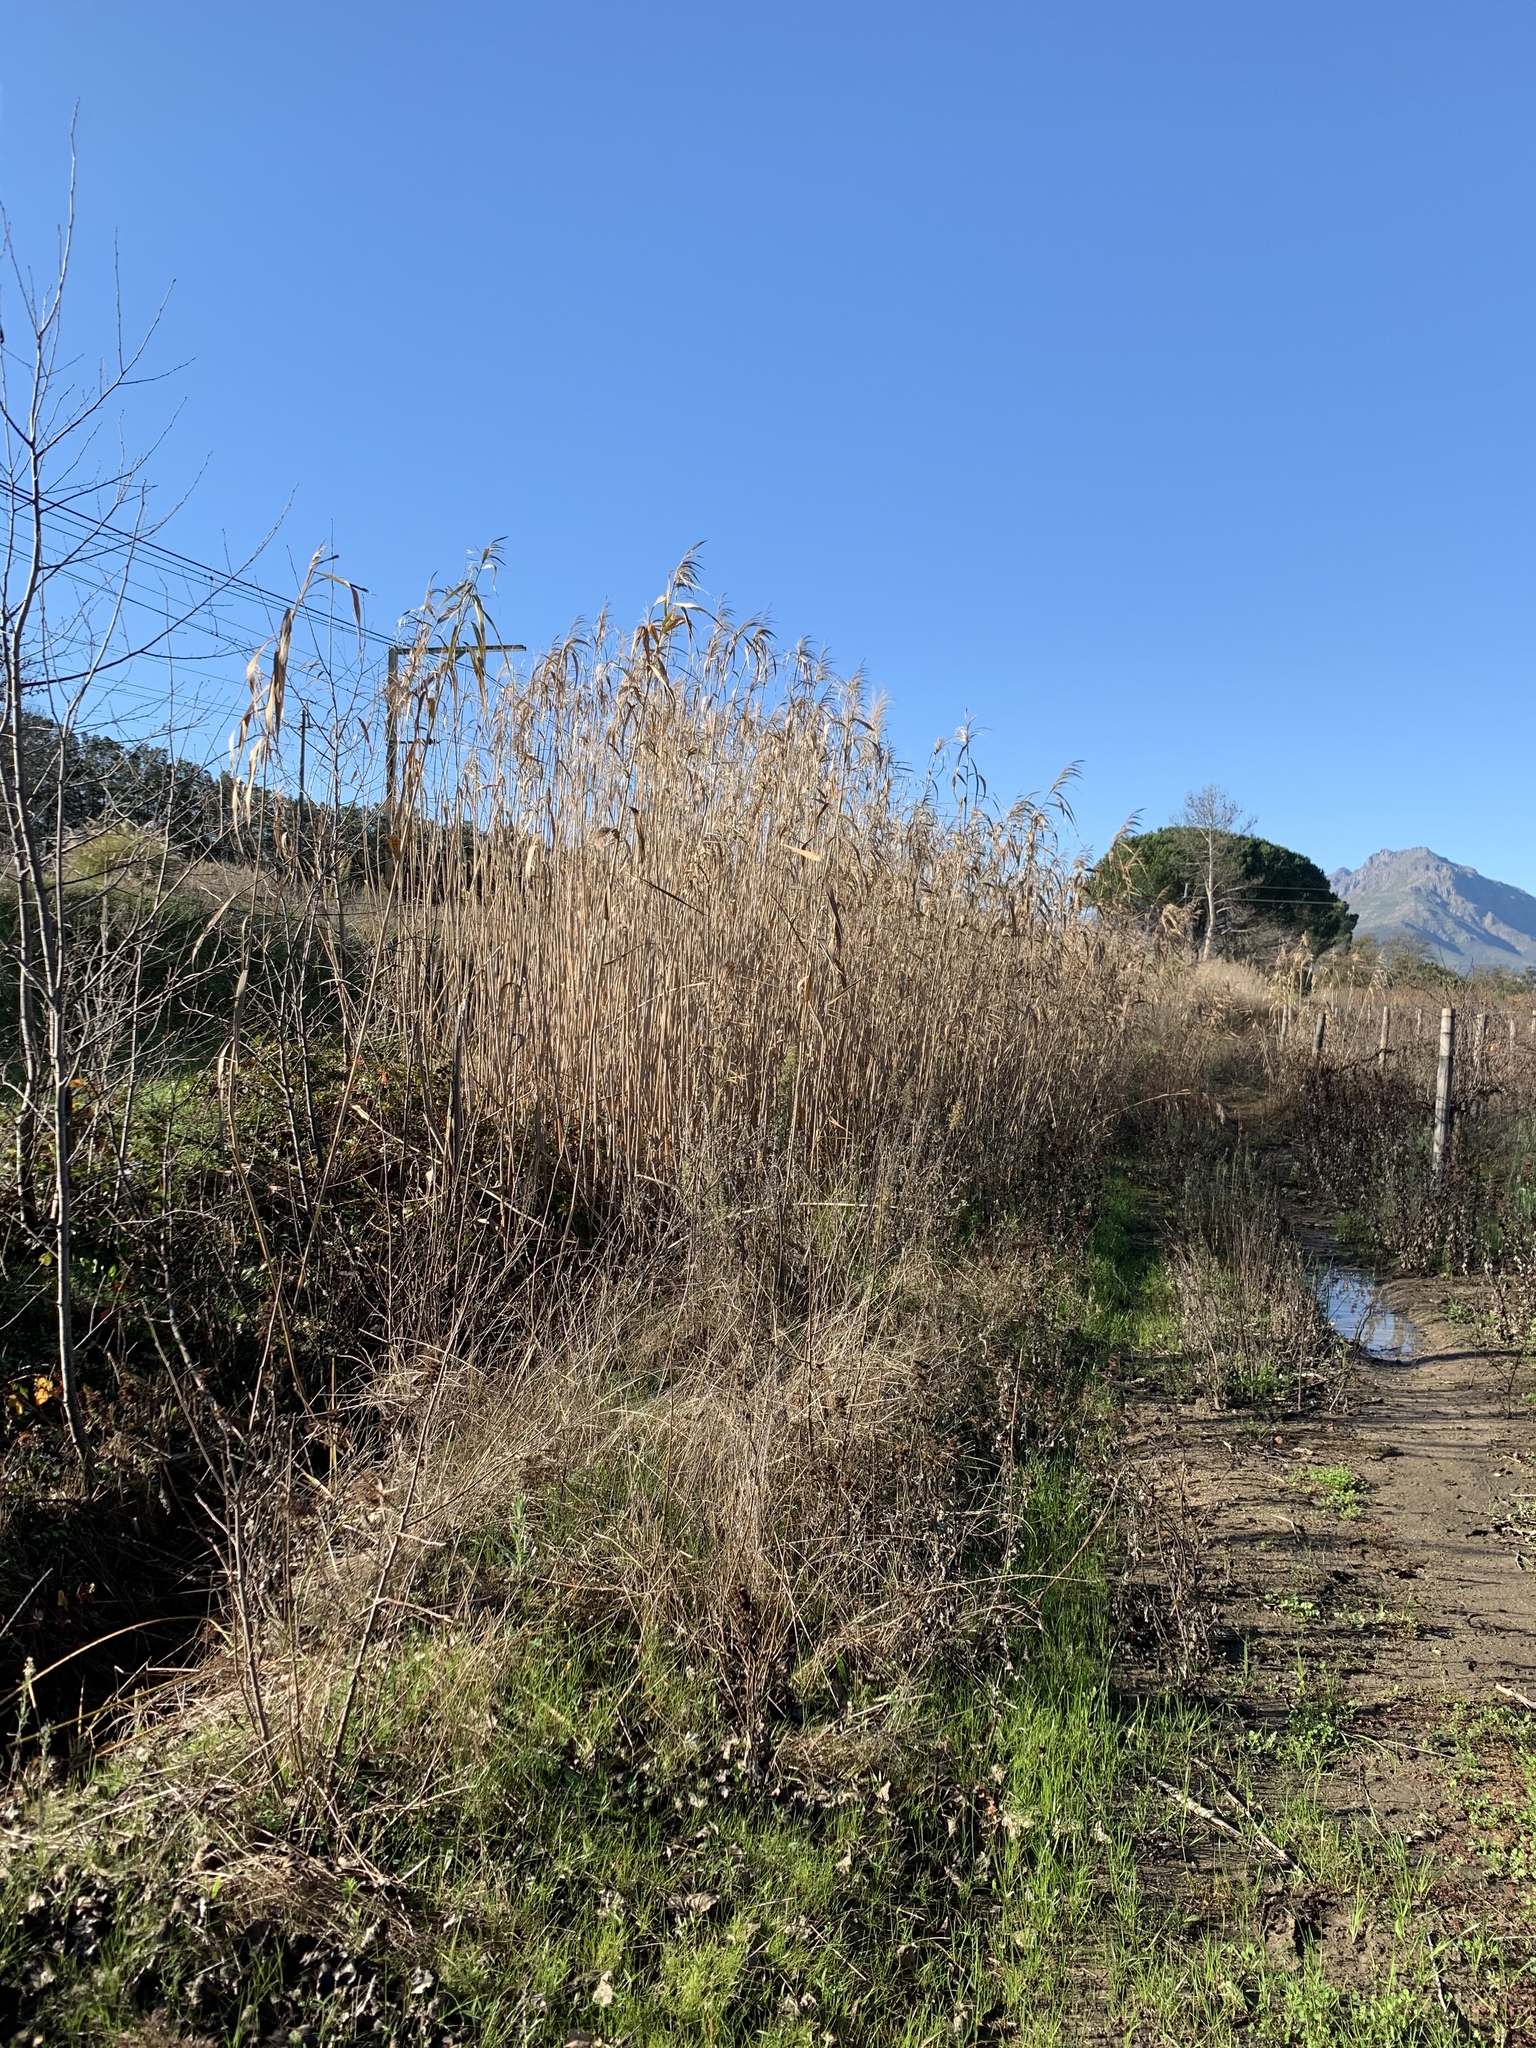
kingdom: Plantae
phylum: Tracheophyta
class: Liliopsida
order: Poales
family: Poaceae
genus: Phragmites
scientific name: Phragmites australis
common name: Common reed
